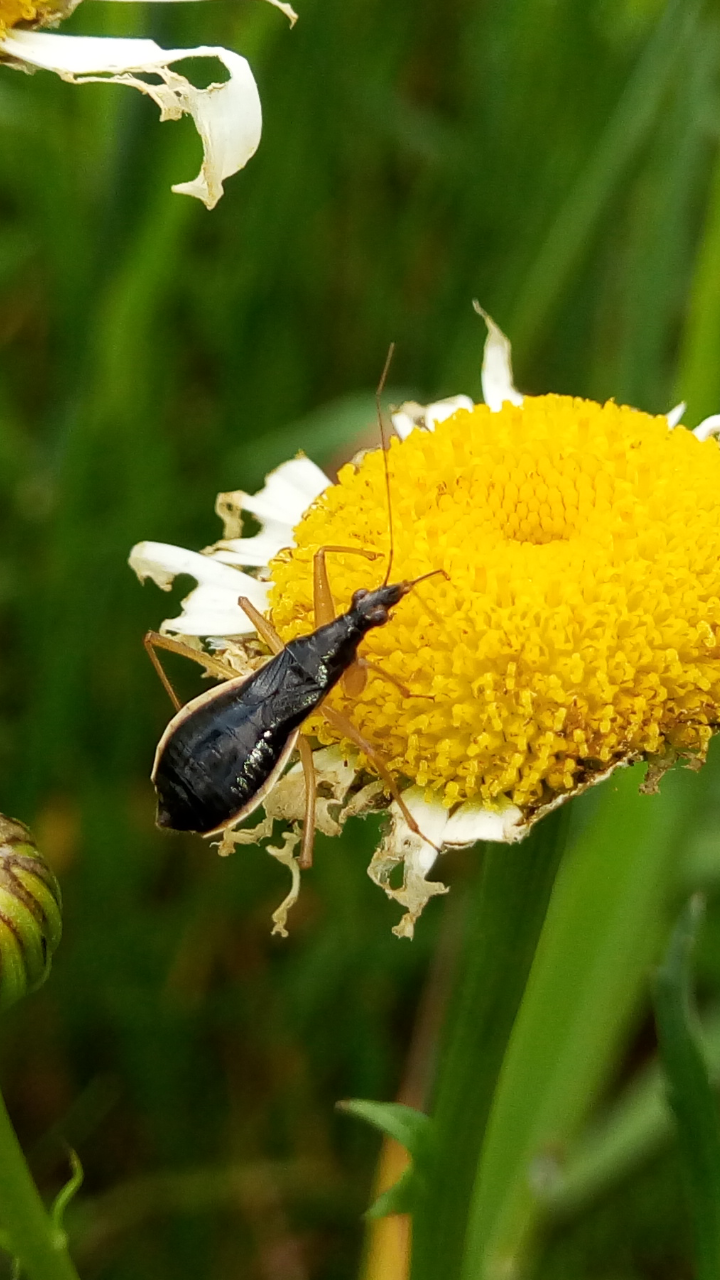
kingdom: Animalia
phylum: Arthropoda
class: Insecta
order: Hemiptera
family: Nabidae
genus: Nabis
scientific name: Nabis
